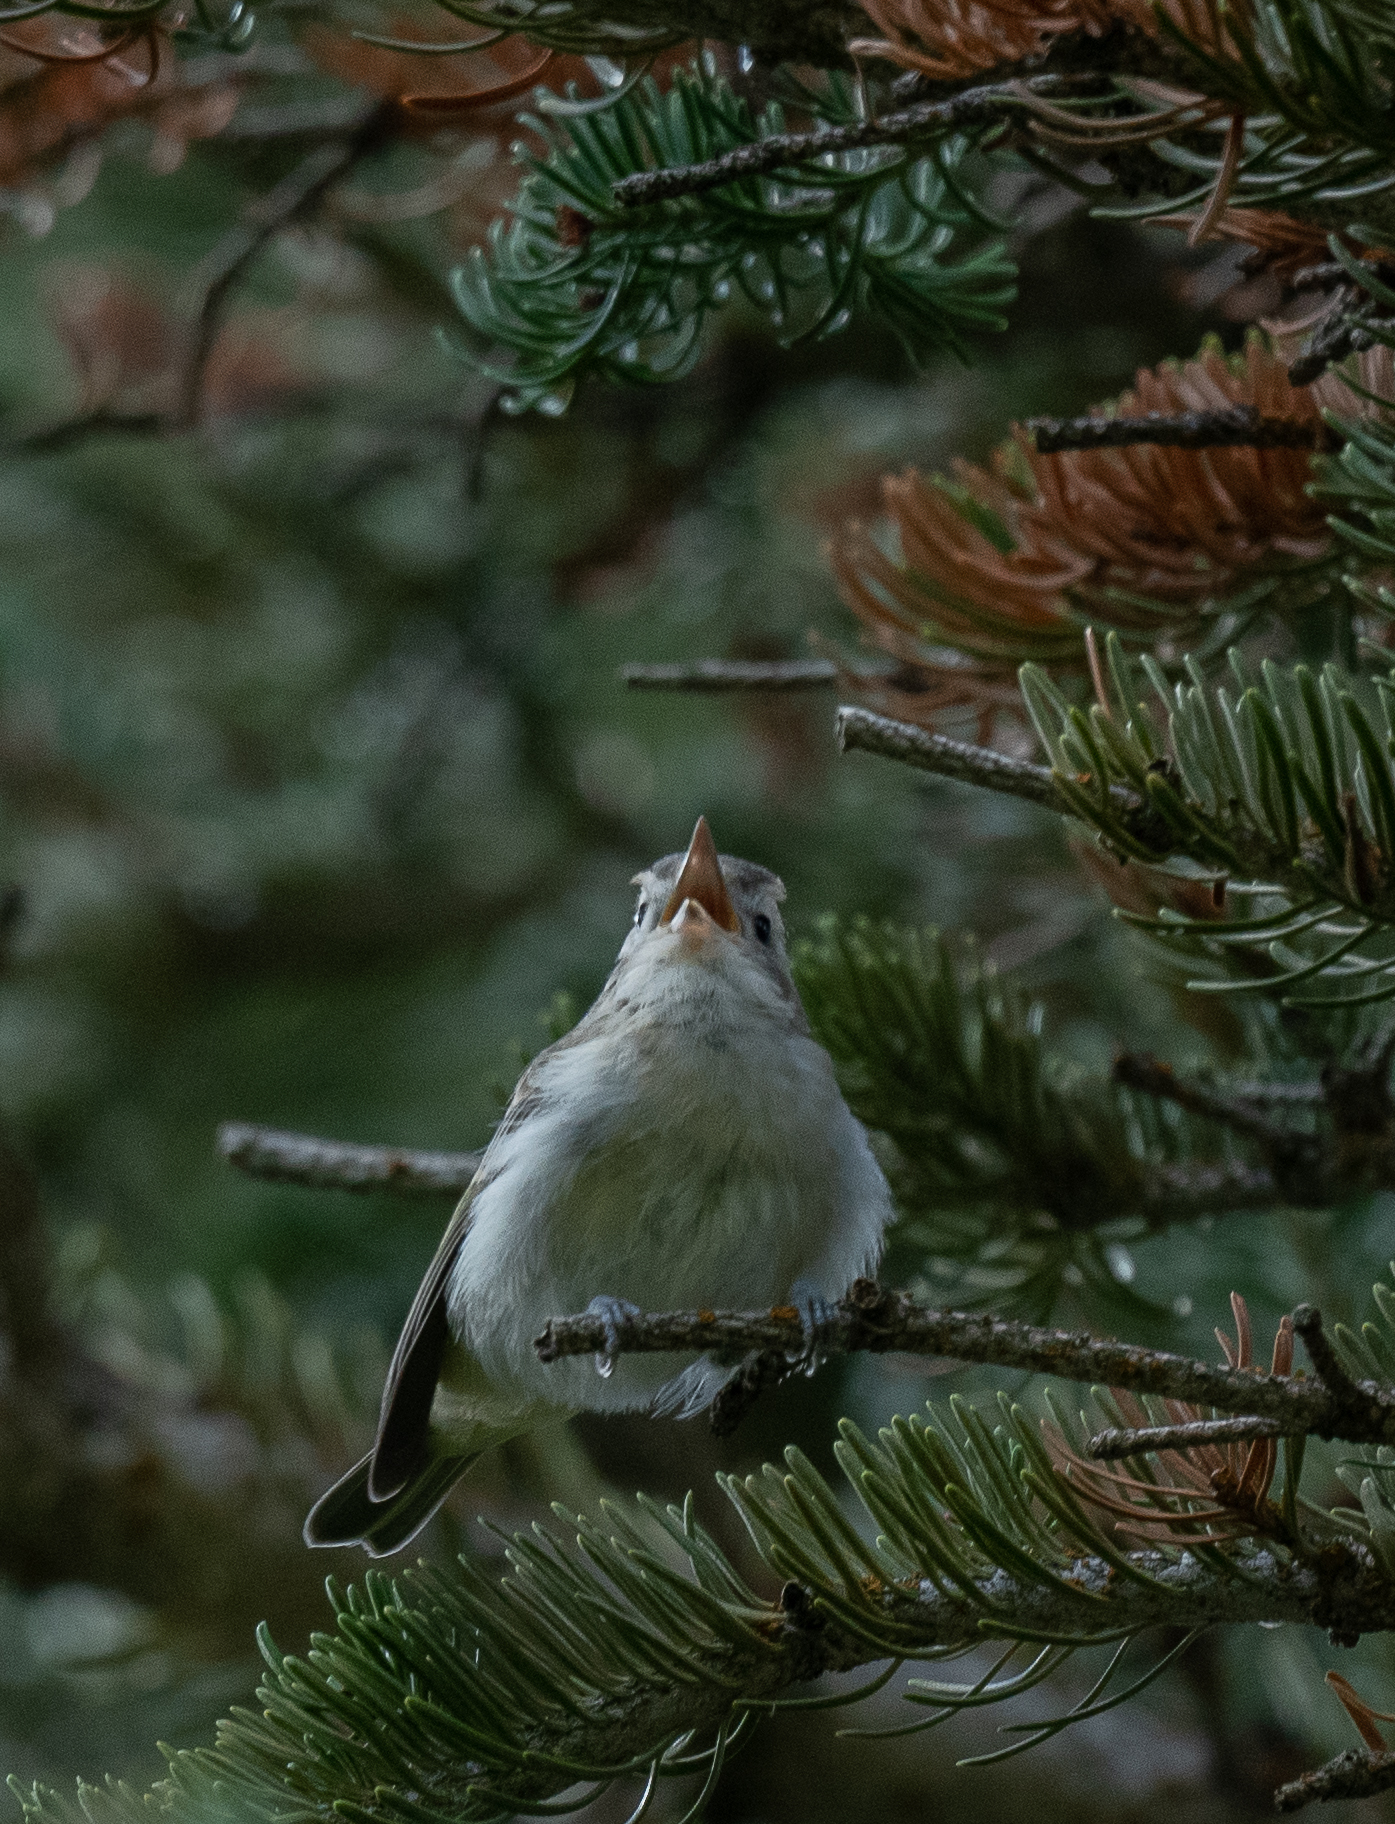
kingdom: Animalia
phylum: Chordata
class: Aves
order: Passeriformes
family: Vireonidae
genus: Vireo
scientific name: Vireo gilvus
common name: Warbling vireo
